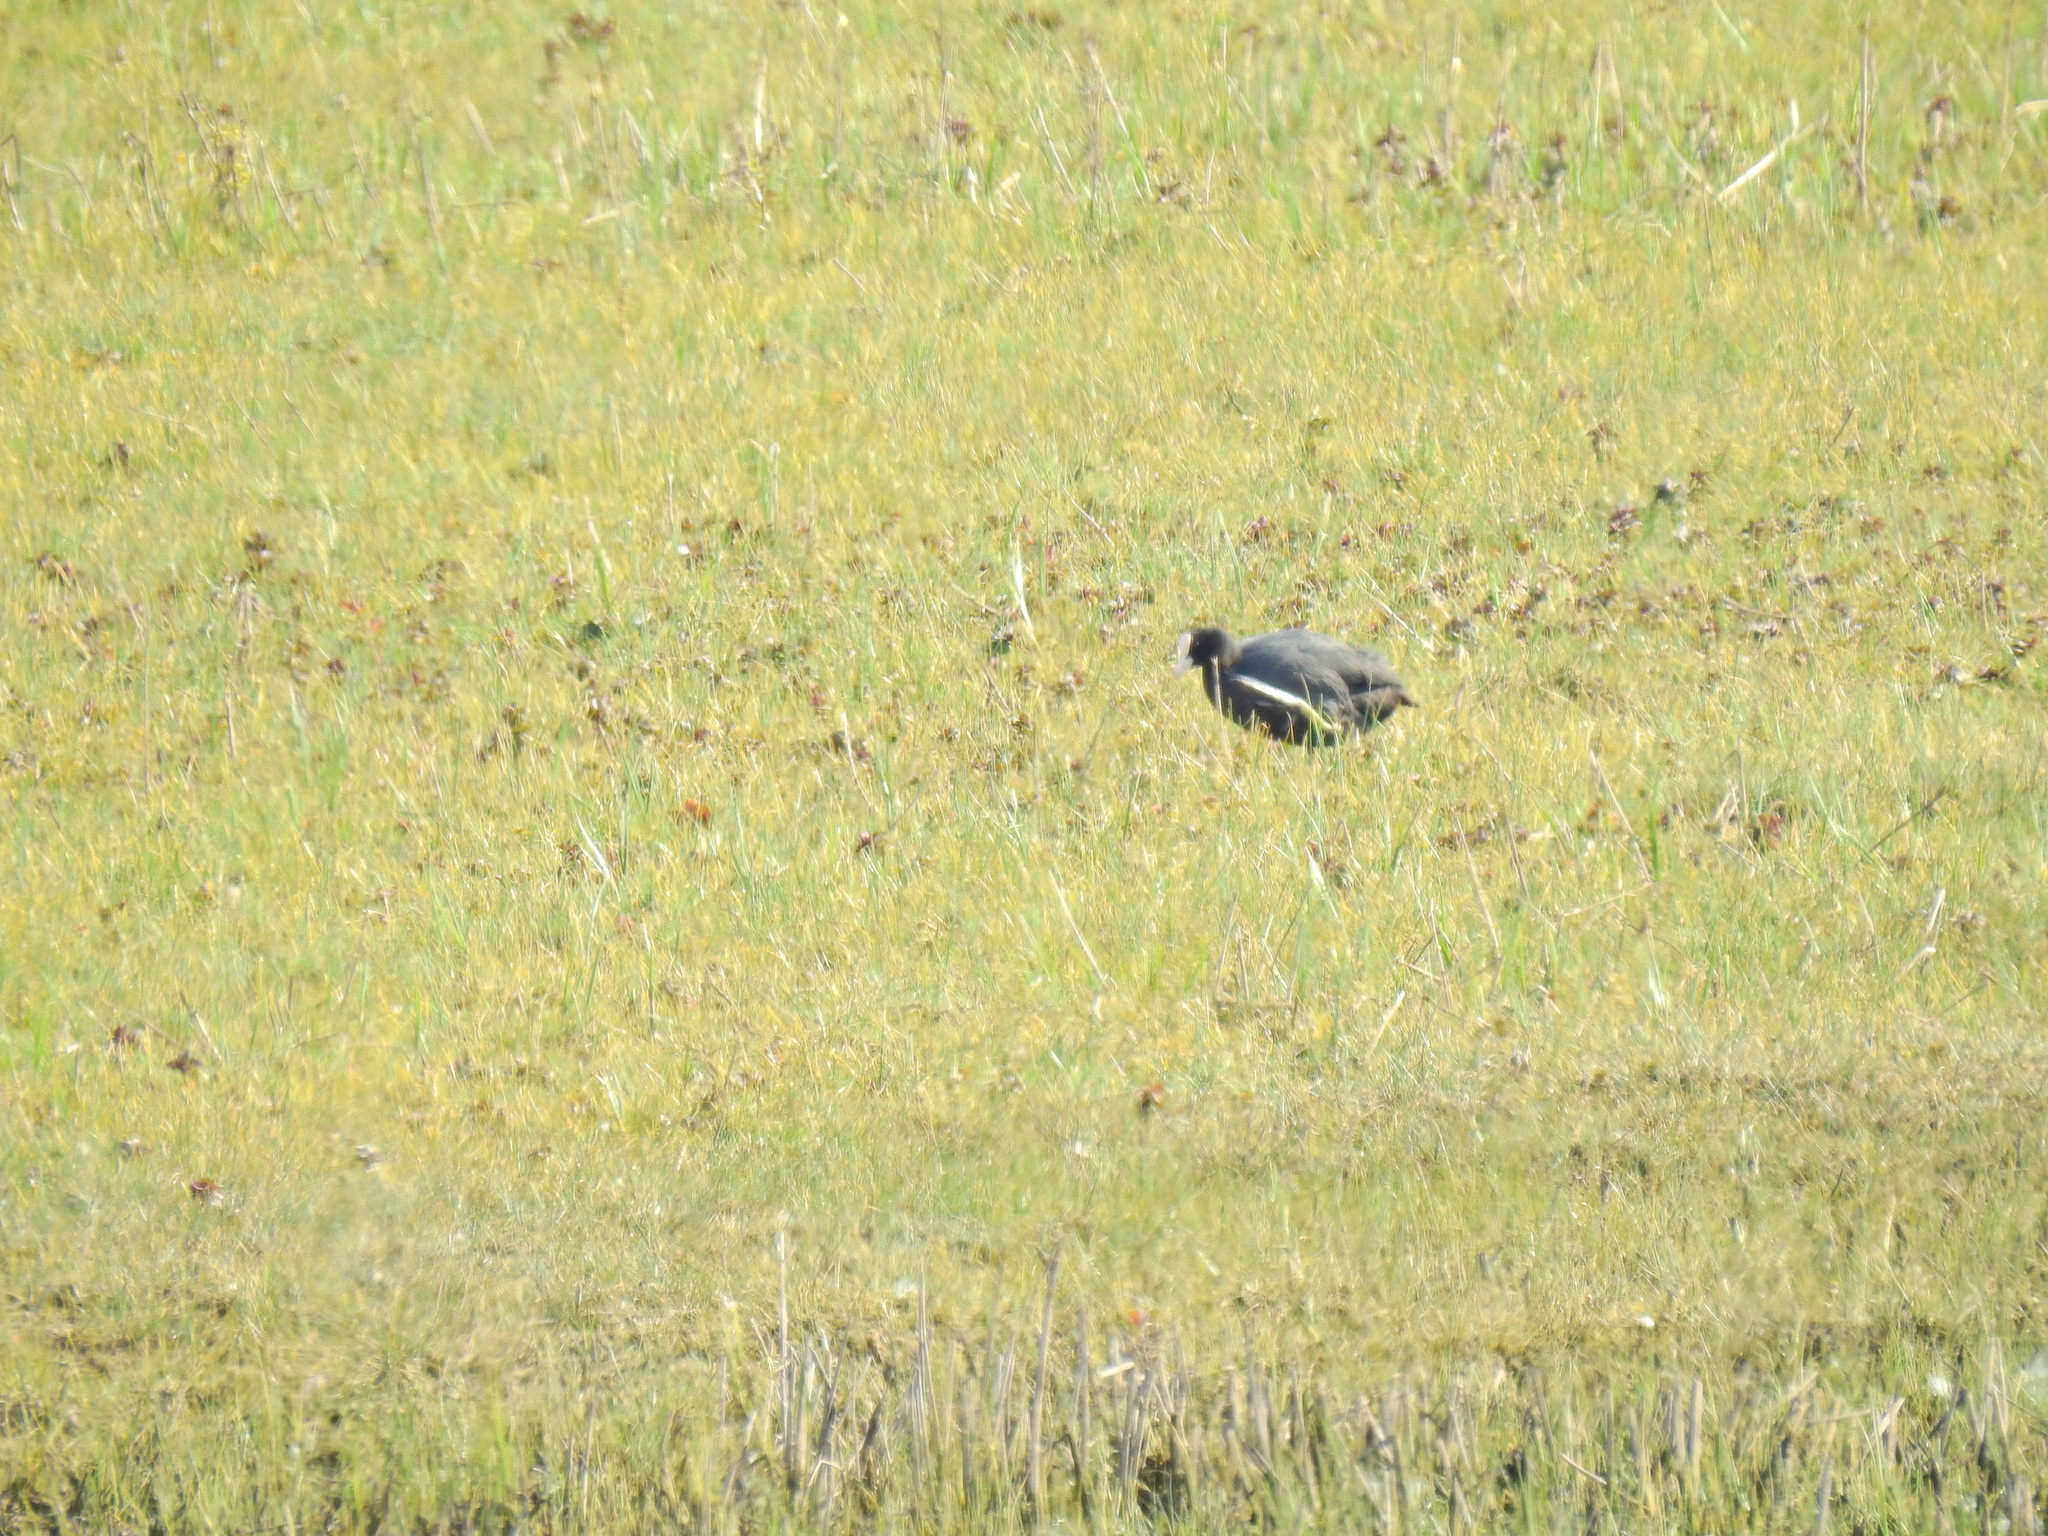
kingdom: Animalia
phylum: Chordata
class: Aves
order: Gruiformes
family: Rallidae
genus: Fulica
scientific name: Fulica atra
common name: Eurasian coot
